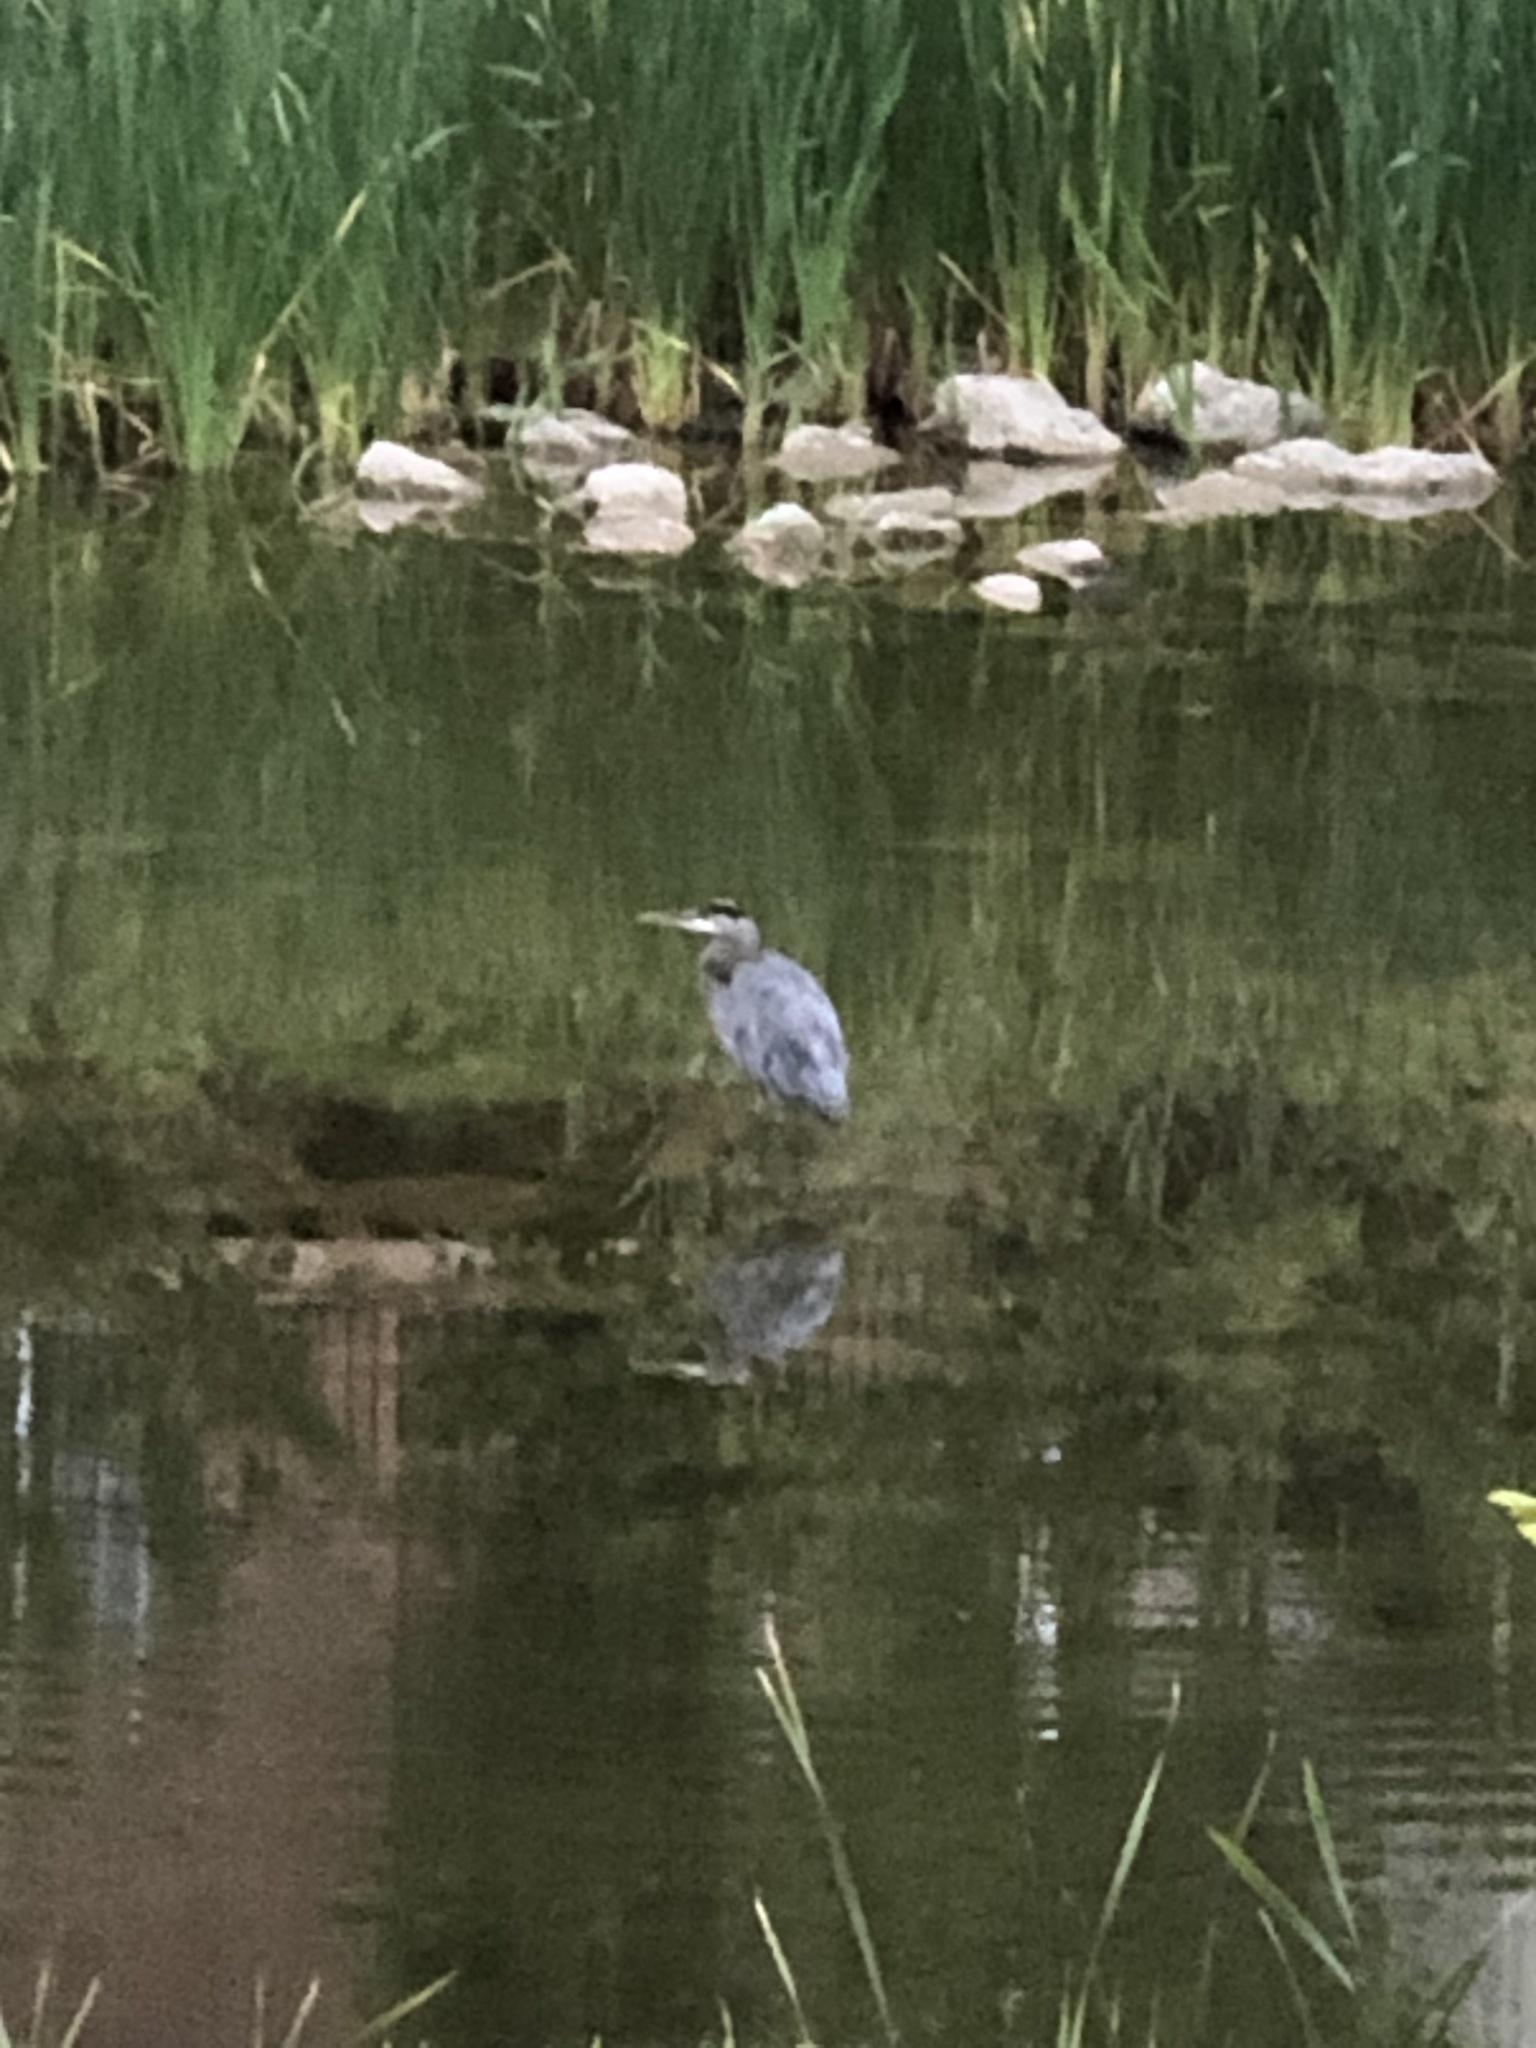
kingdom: Animalia
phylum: Chordata
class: Aves
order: Pelecaniformes
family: Ardeidae
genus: Ardea
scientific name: Ardea herodias
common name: Great blue heron
